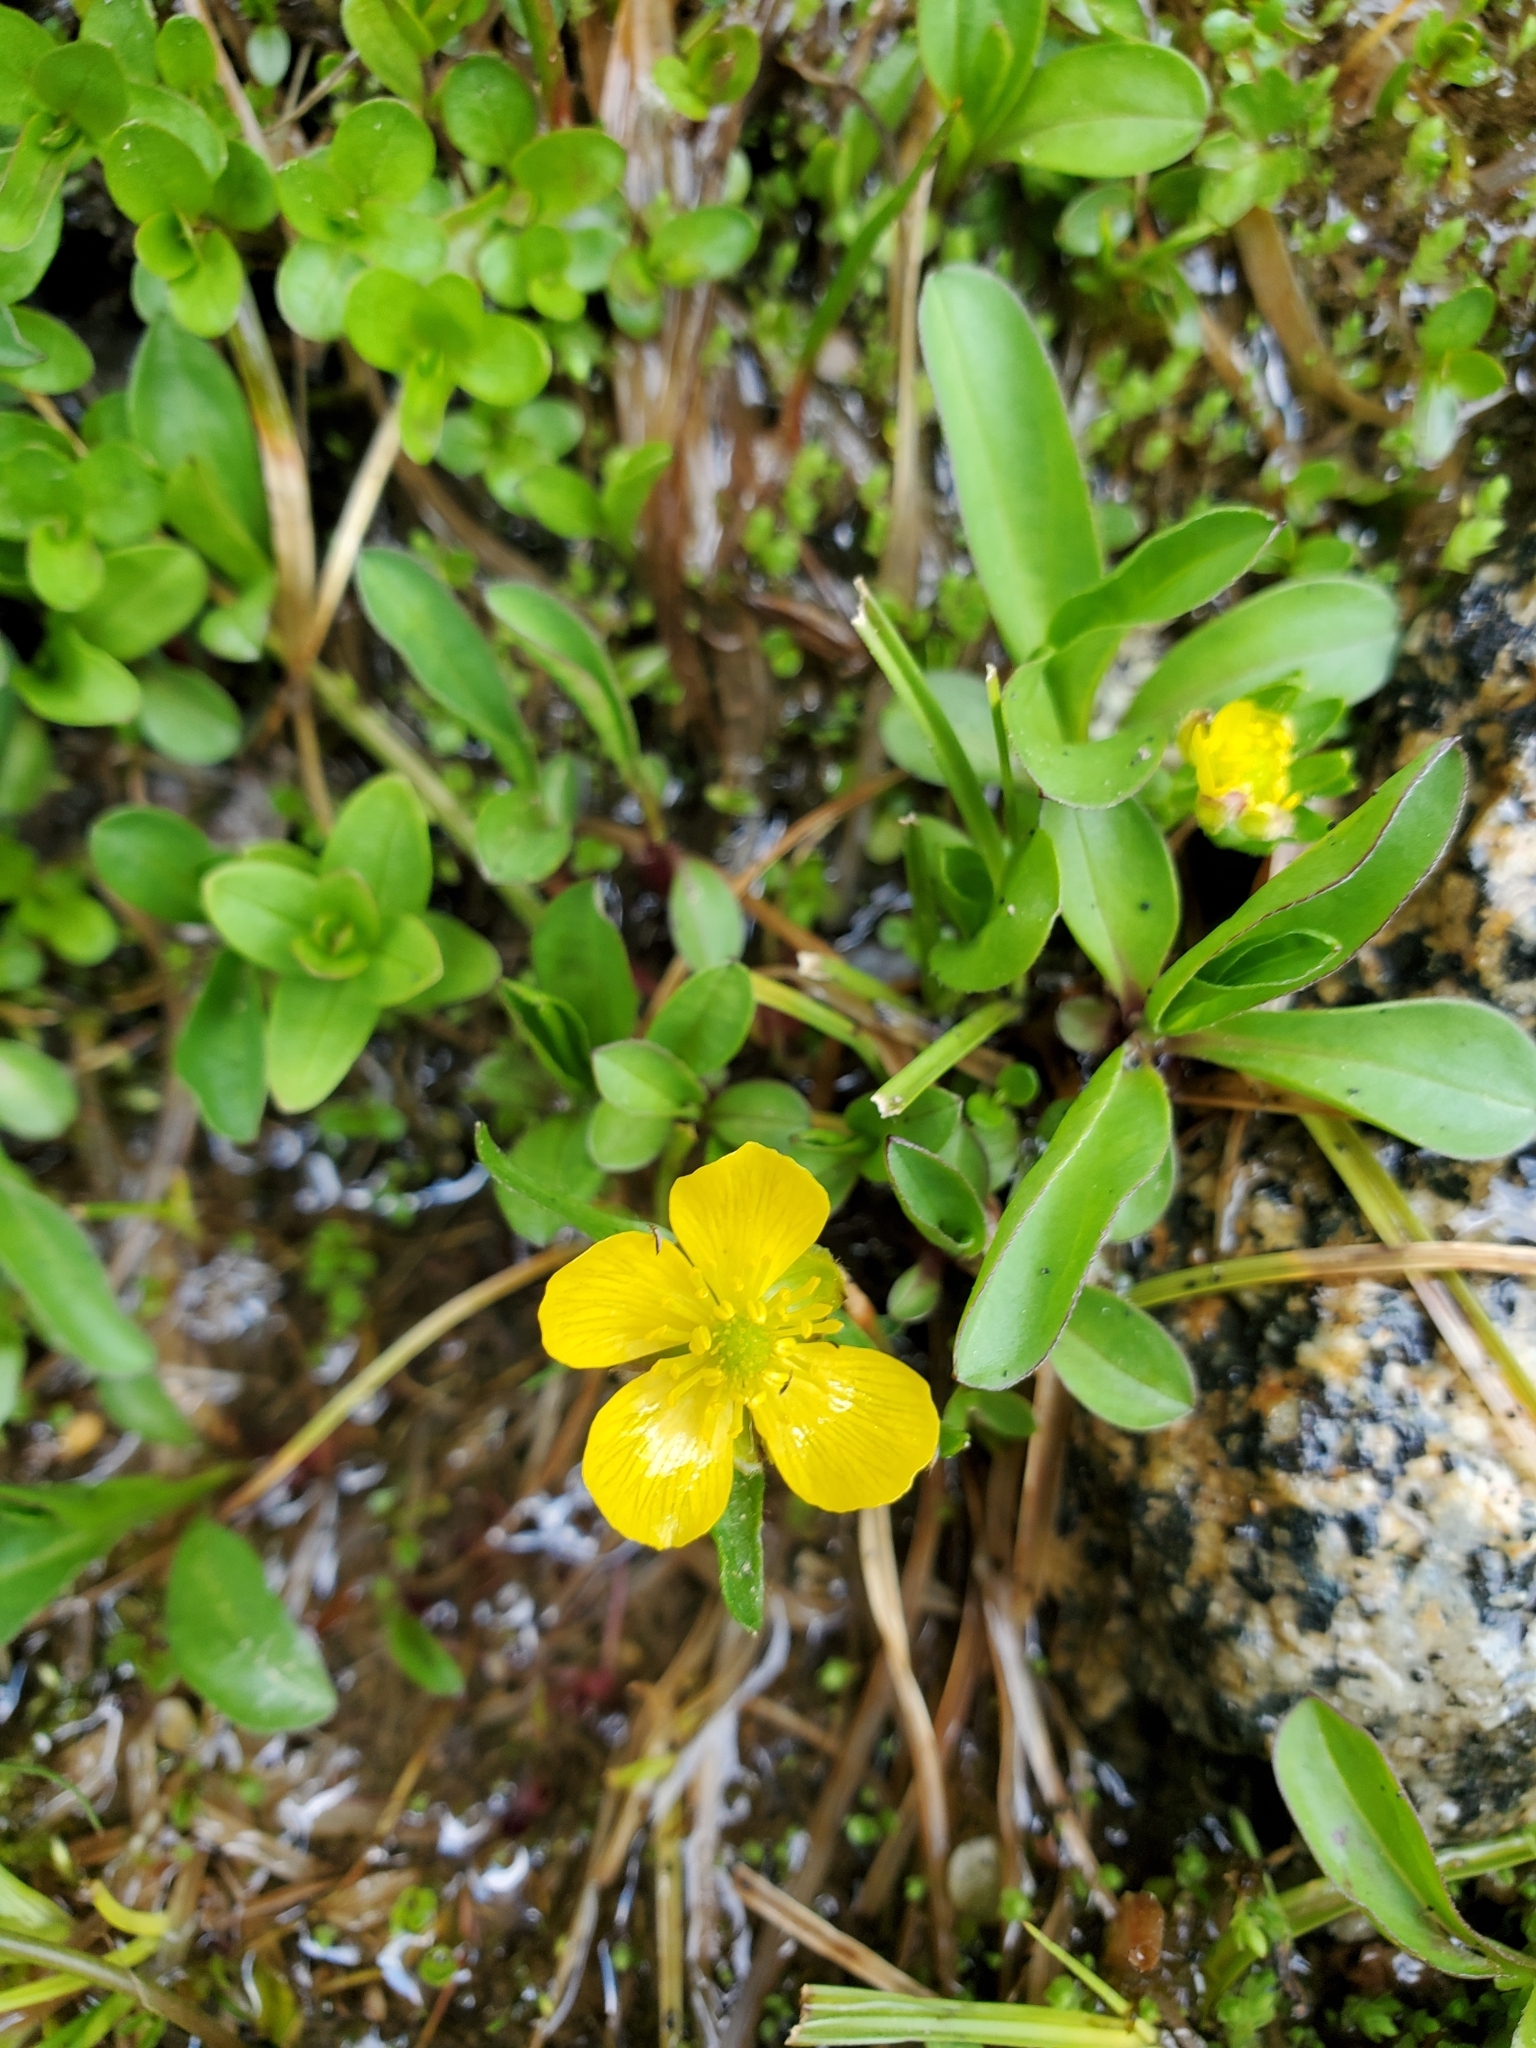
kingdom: Plantae
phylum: Tracheophyta
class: Magnoliopsida
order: Ranunculales
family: Ranunculaceae
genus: Ranunculus
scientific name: Ranunculus eschscholtzii
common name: Eschscholtz's buttercup
